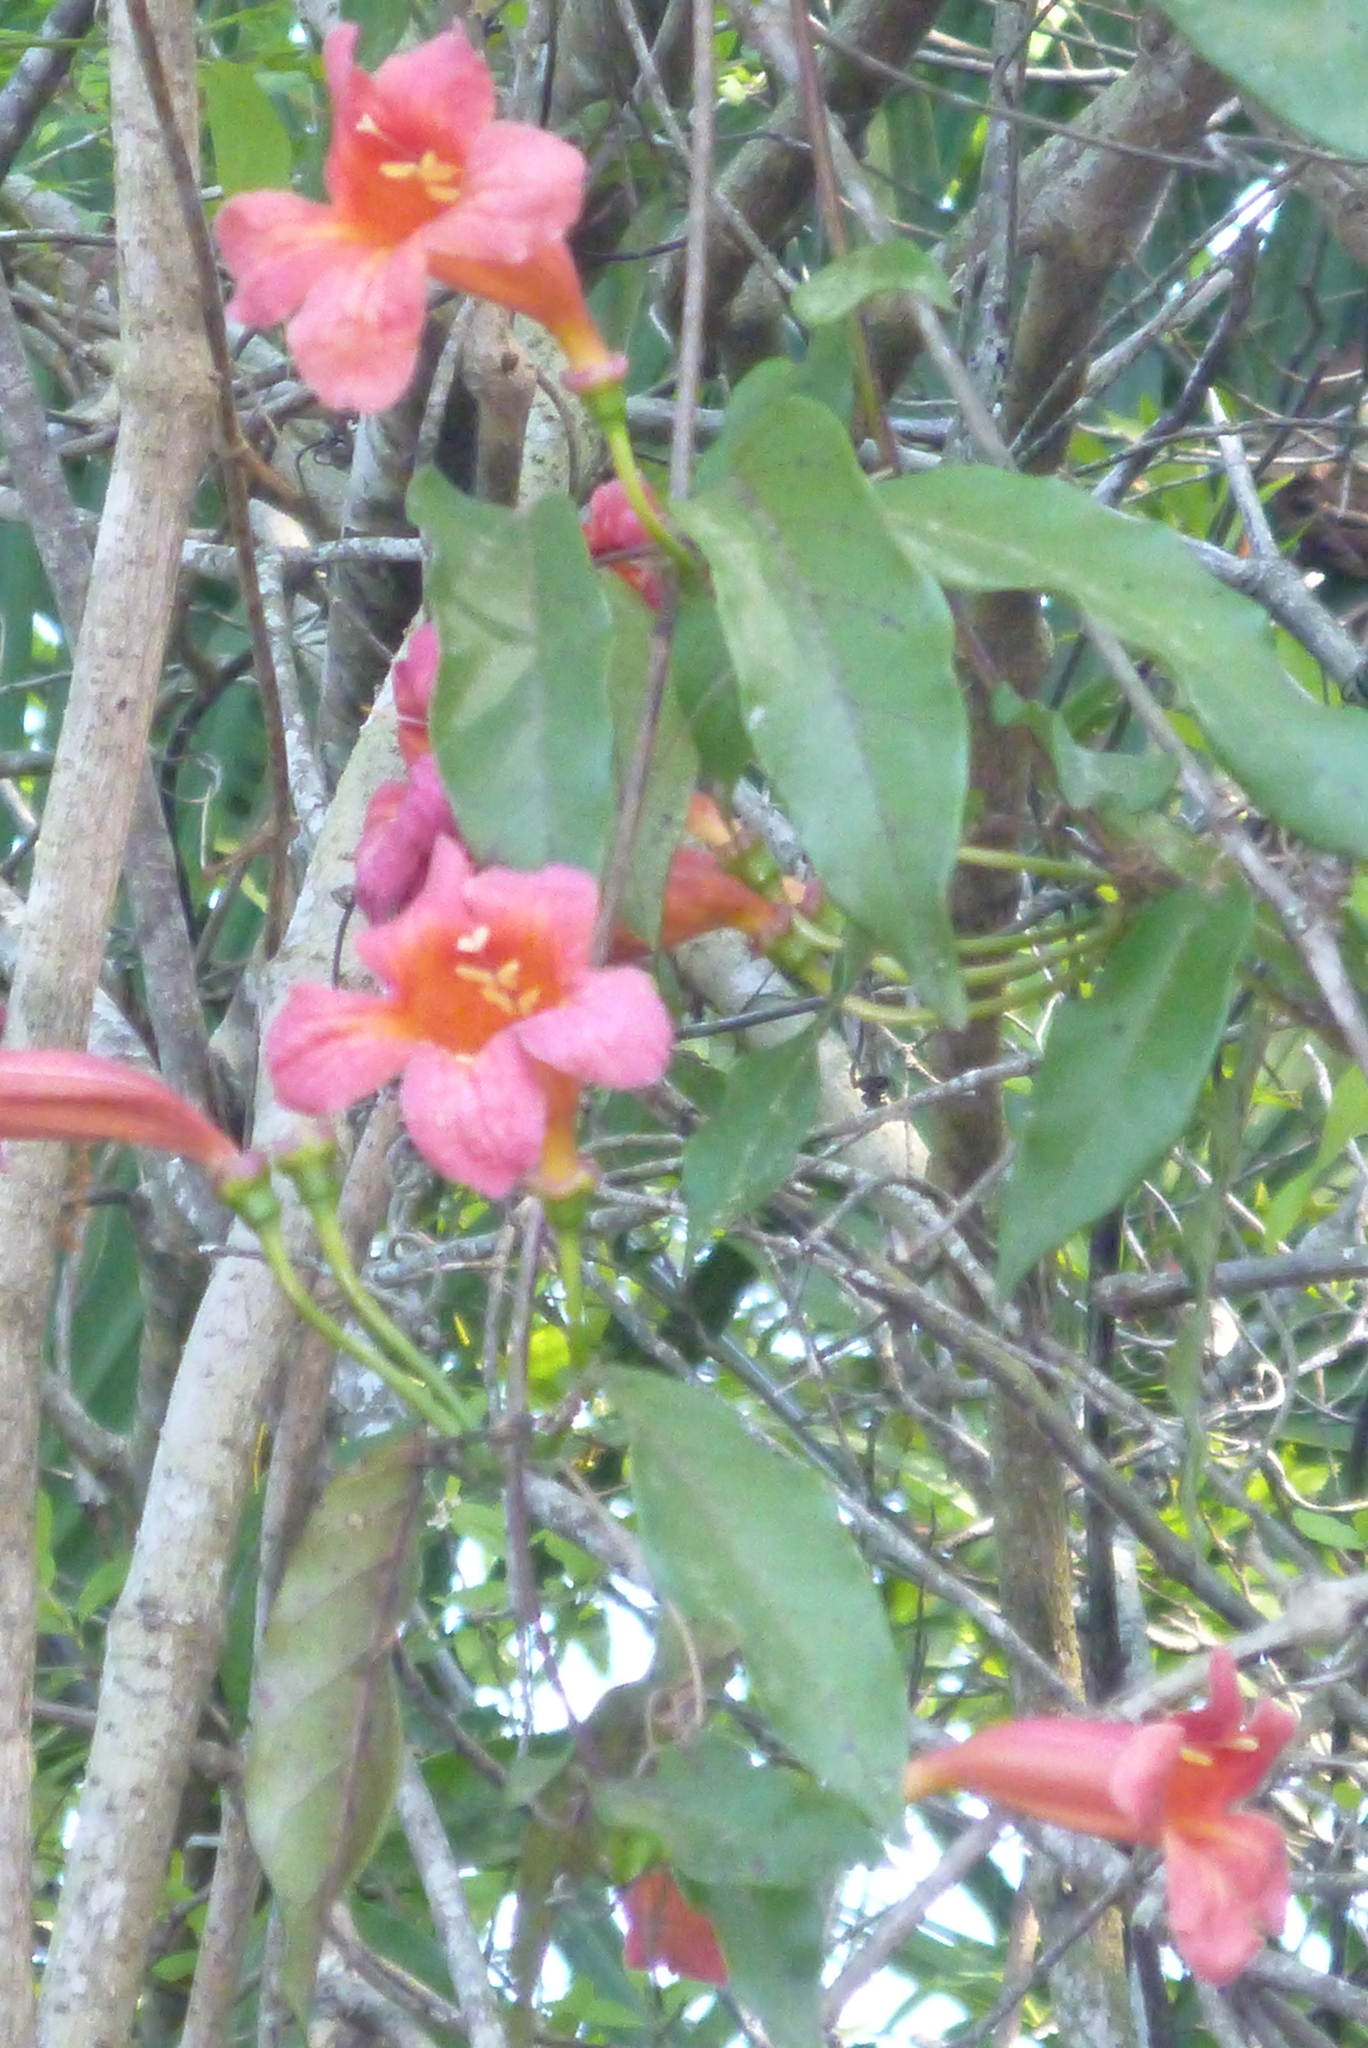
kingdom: Plantae
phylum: Tracheophyta
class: Magnoliopsida
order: Lamiales
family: Bignoniaceae
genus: Bignonia
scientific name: Bignonia capreolata
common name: Crossvine
